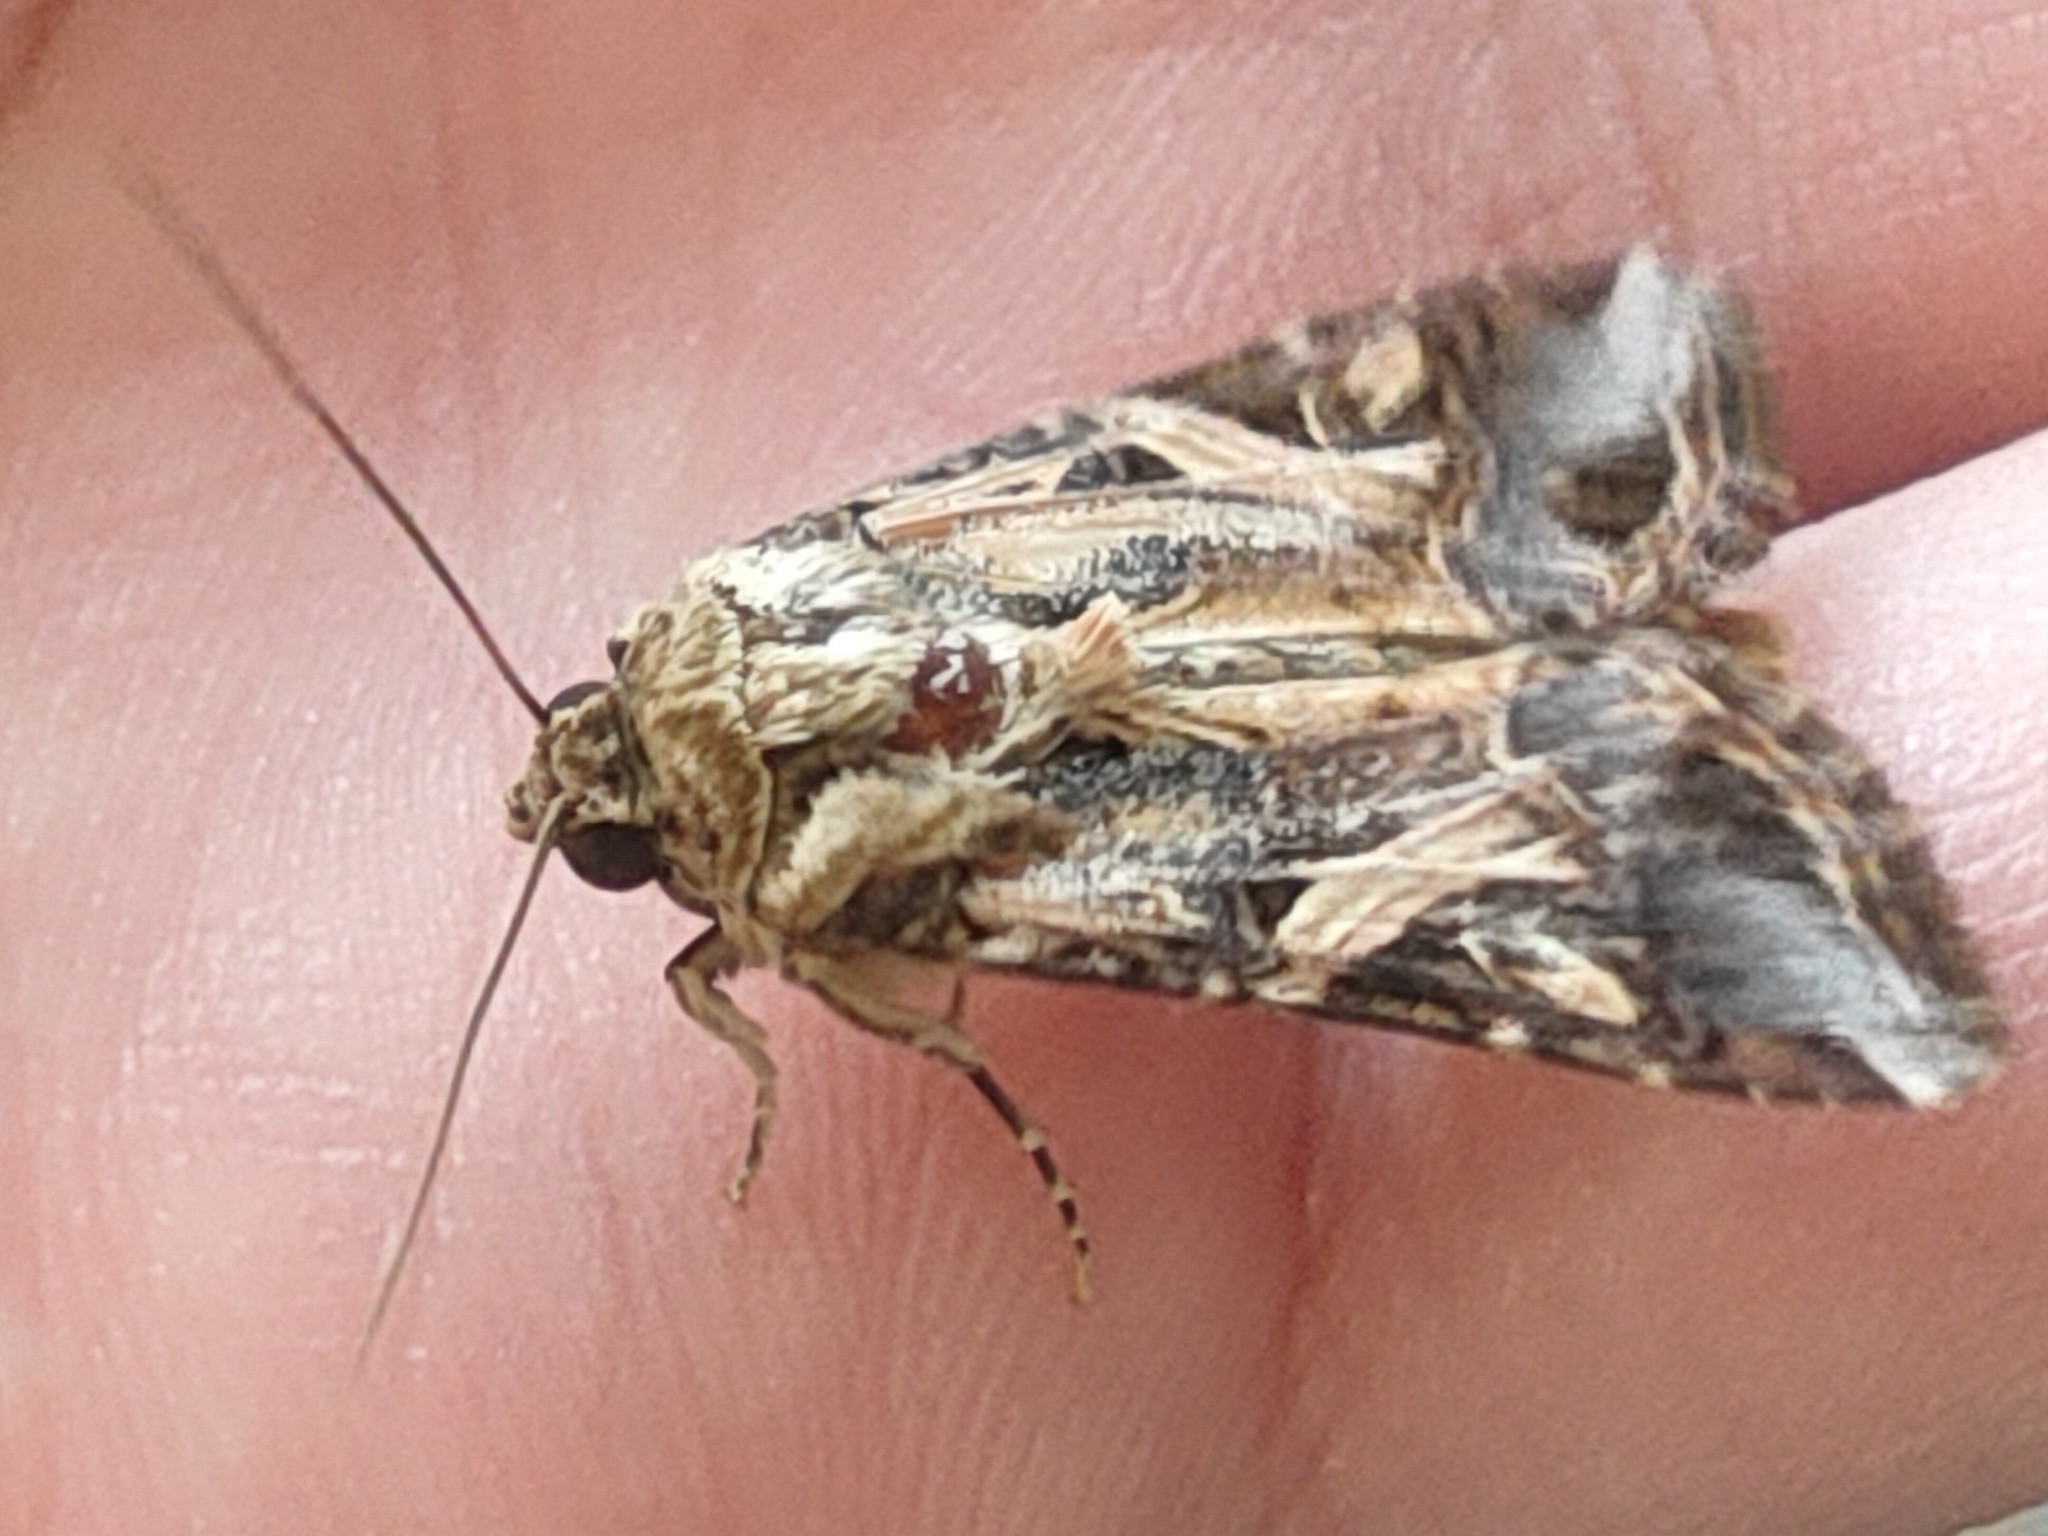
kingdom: Animalia
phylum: Arthropoda
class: Insecta
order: Lepidoptera
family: Noctuidae
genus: Spodoptera
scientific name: Spodoptera litura
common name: Asian cotton leafworm
